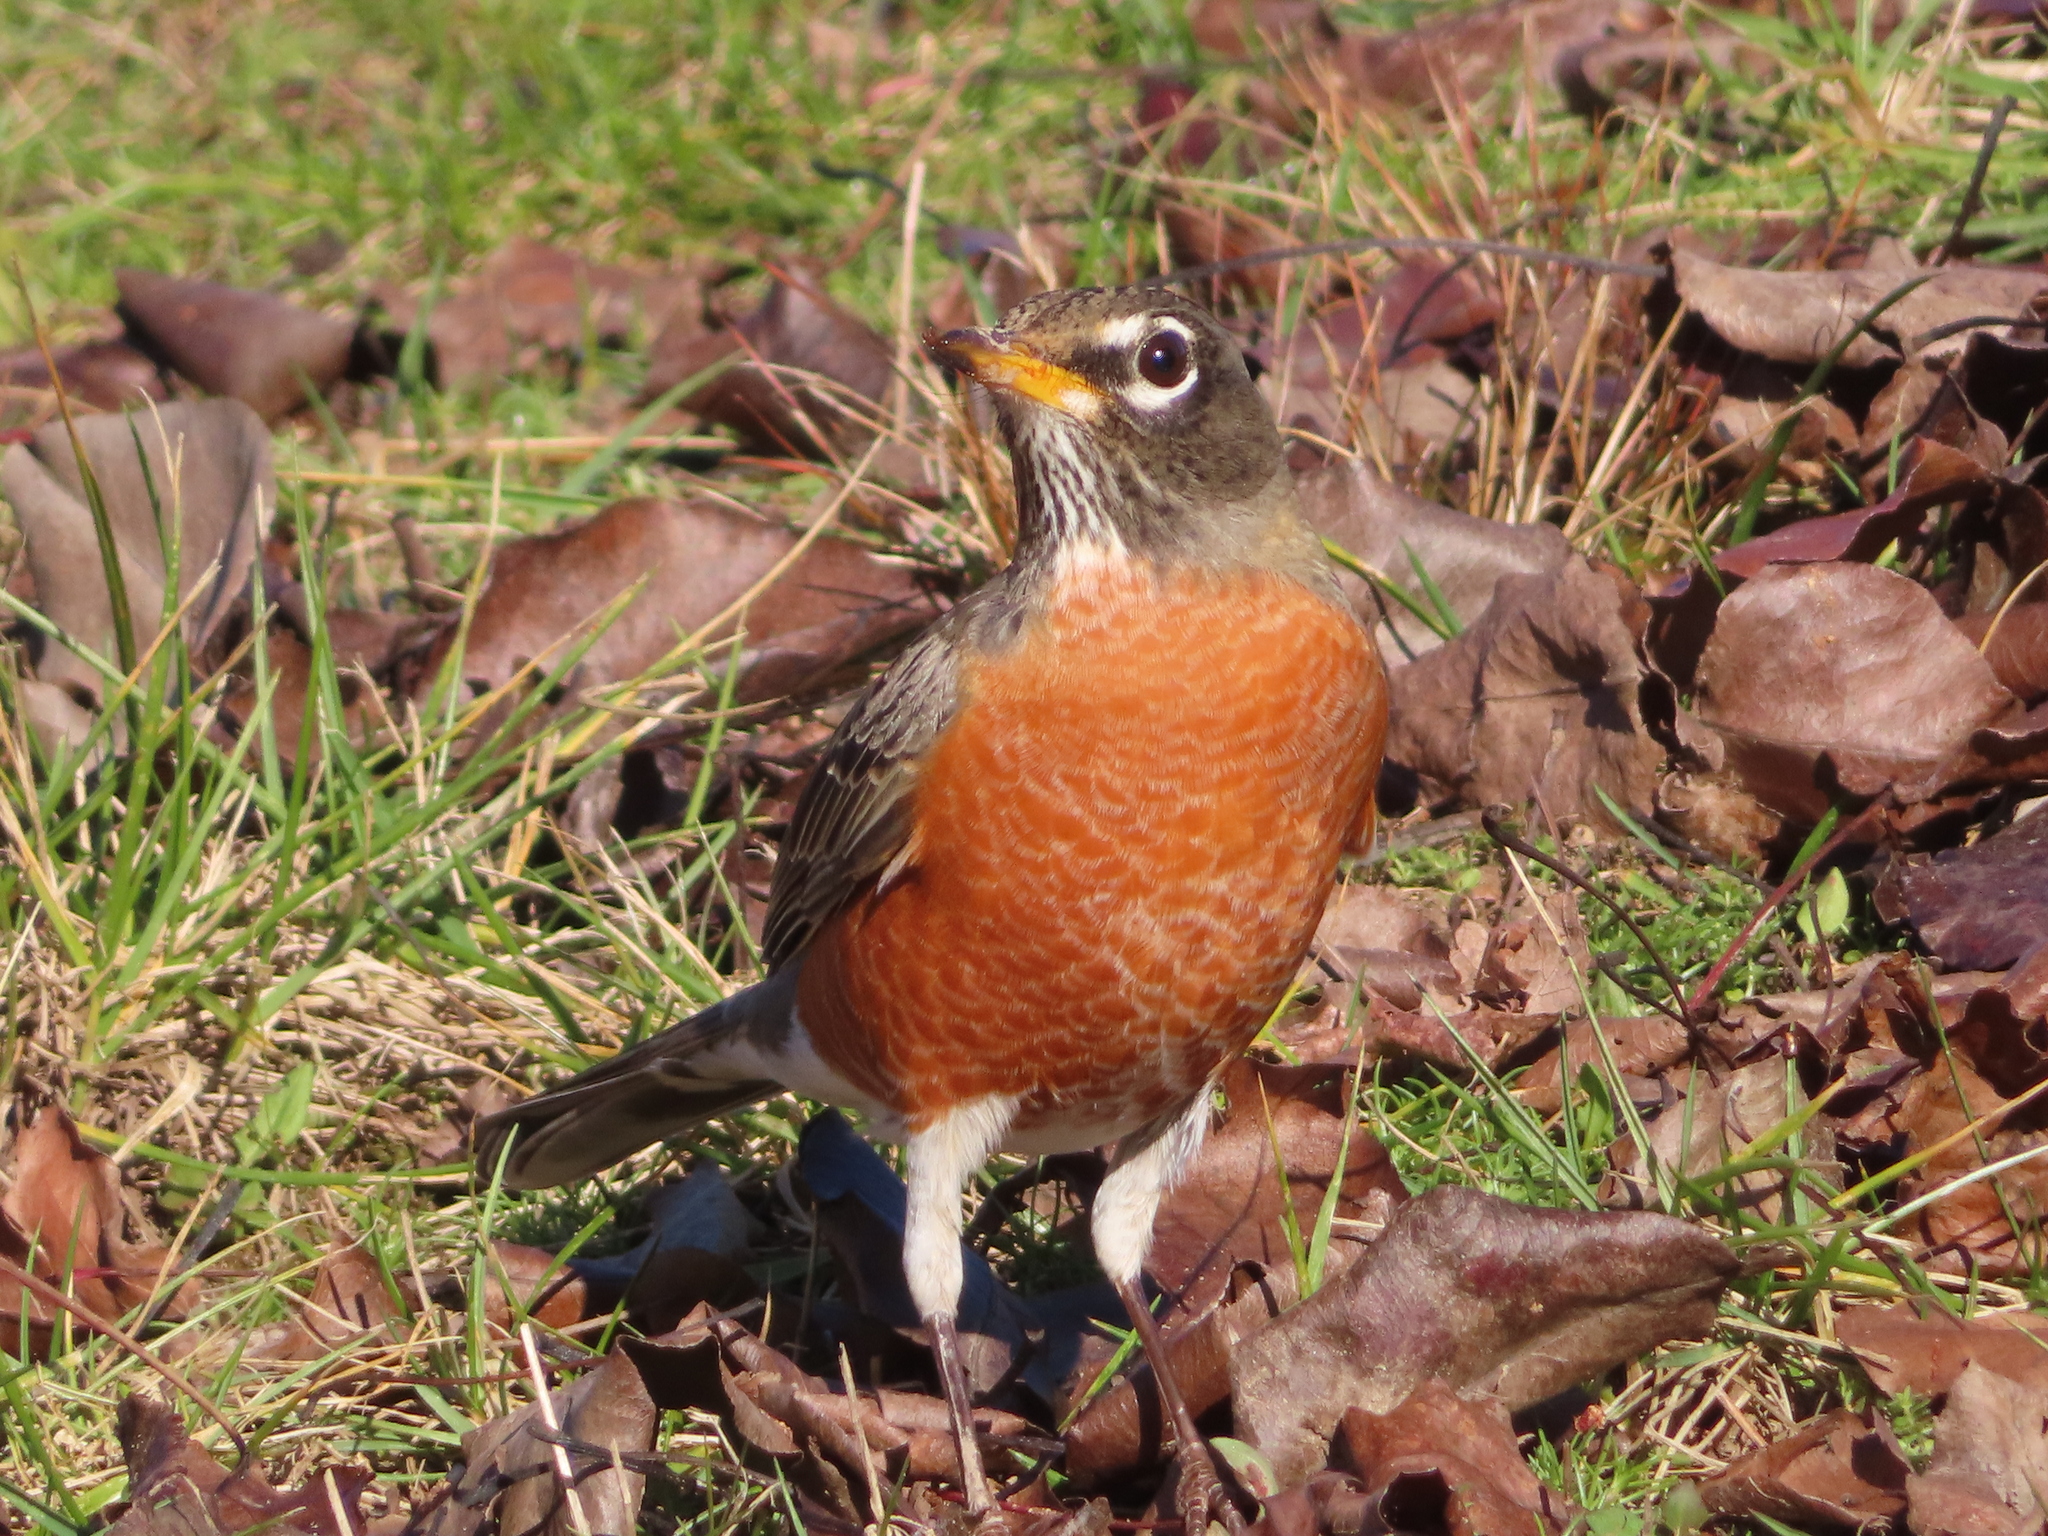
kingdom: Animalia
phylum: Chordata
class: Aves
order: Passeriformes
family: Turdidae
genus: Turdus
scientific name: Turdus migratorius
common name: American robin
